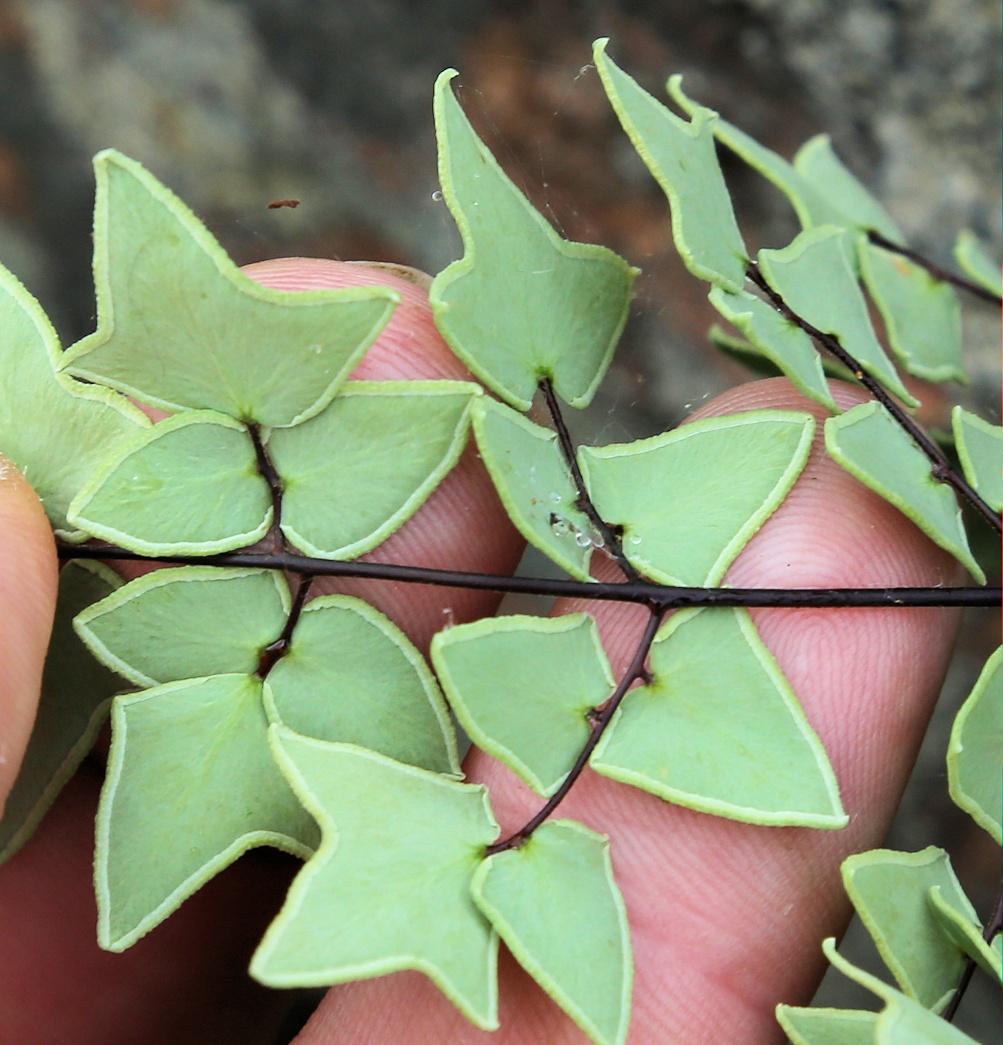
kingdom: Plantae
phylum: Tracheophyta
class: Polypodiopsida
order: Polypodiales
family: Pteridaceae
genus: Pellaea
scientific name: Pellaea calomelanos
